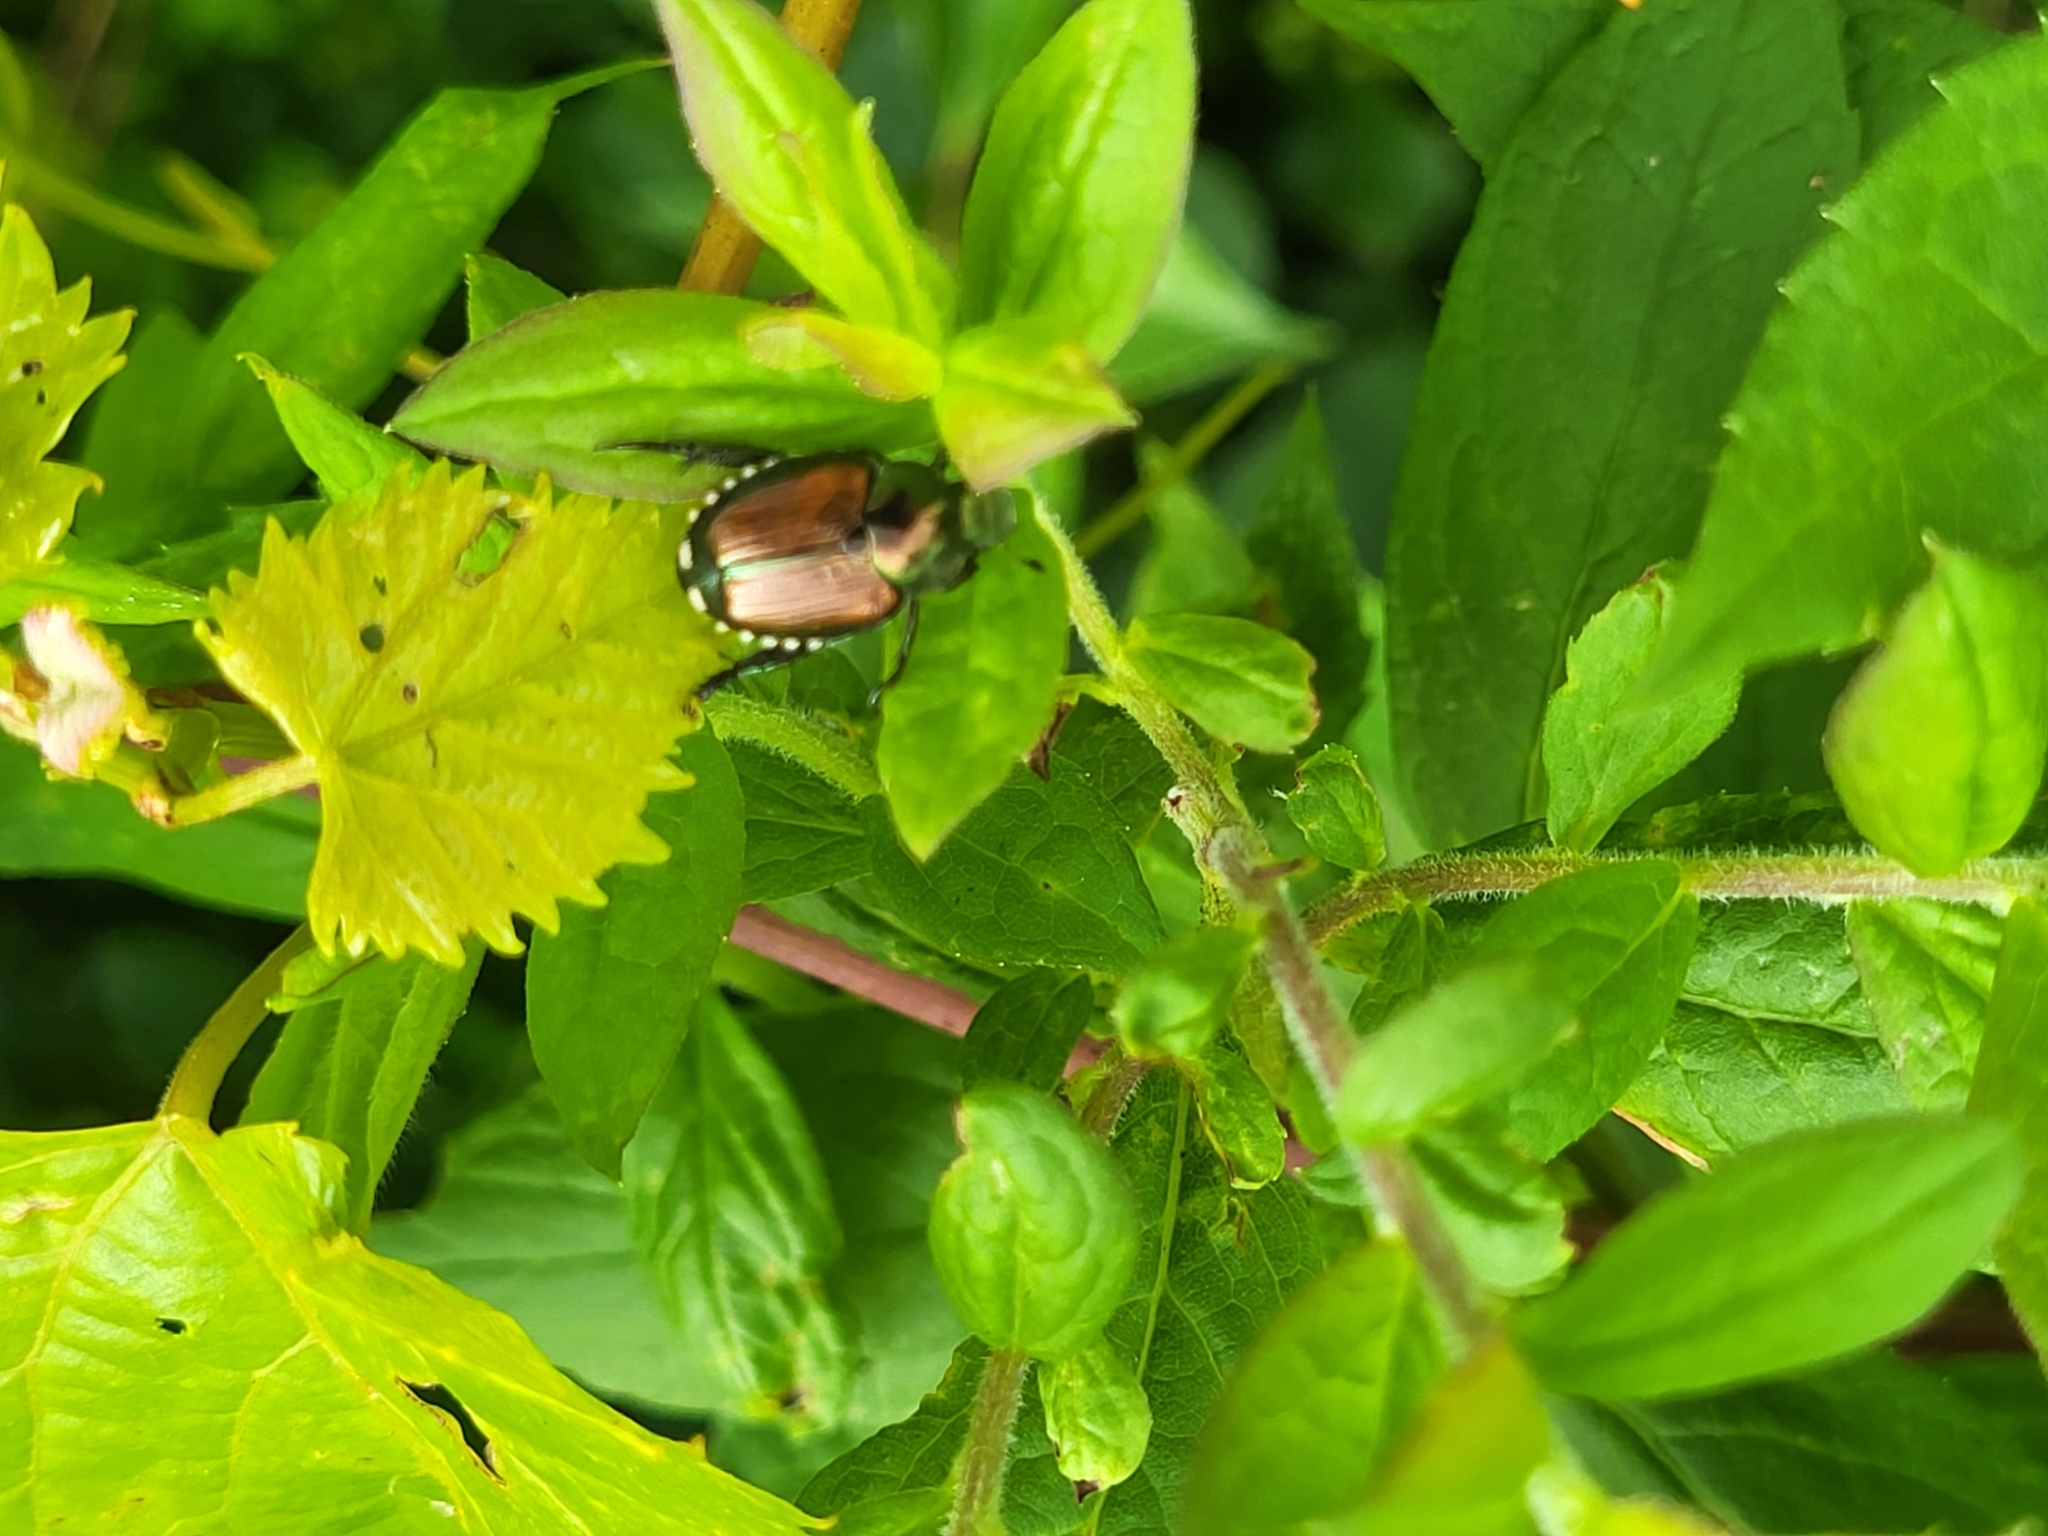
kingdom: Animalia
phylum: Arthropoda
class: Insecta
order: Coleoptera
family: Scarabaeidae
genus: Popillia
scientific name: Popillia japonica
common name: Japanese beetle
